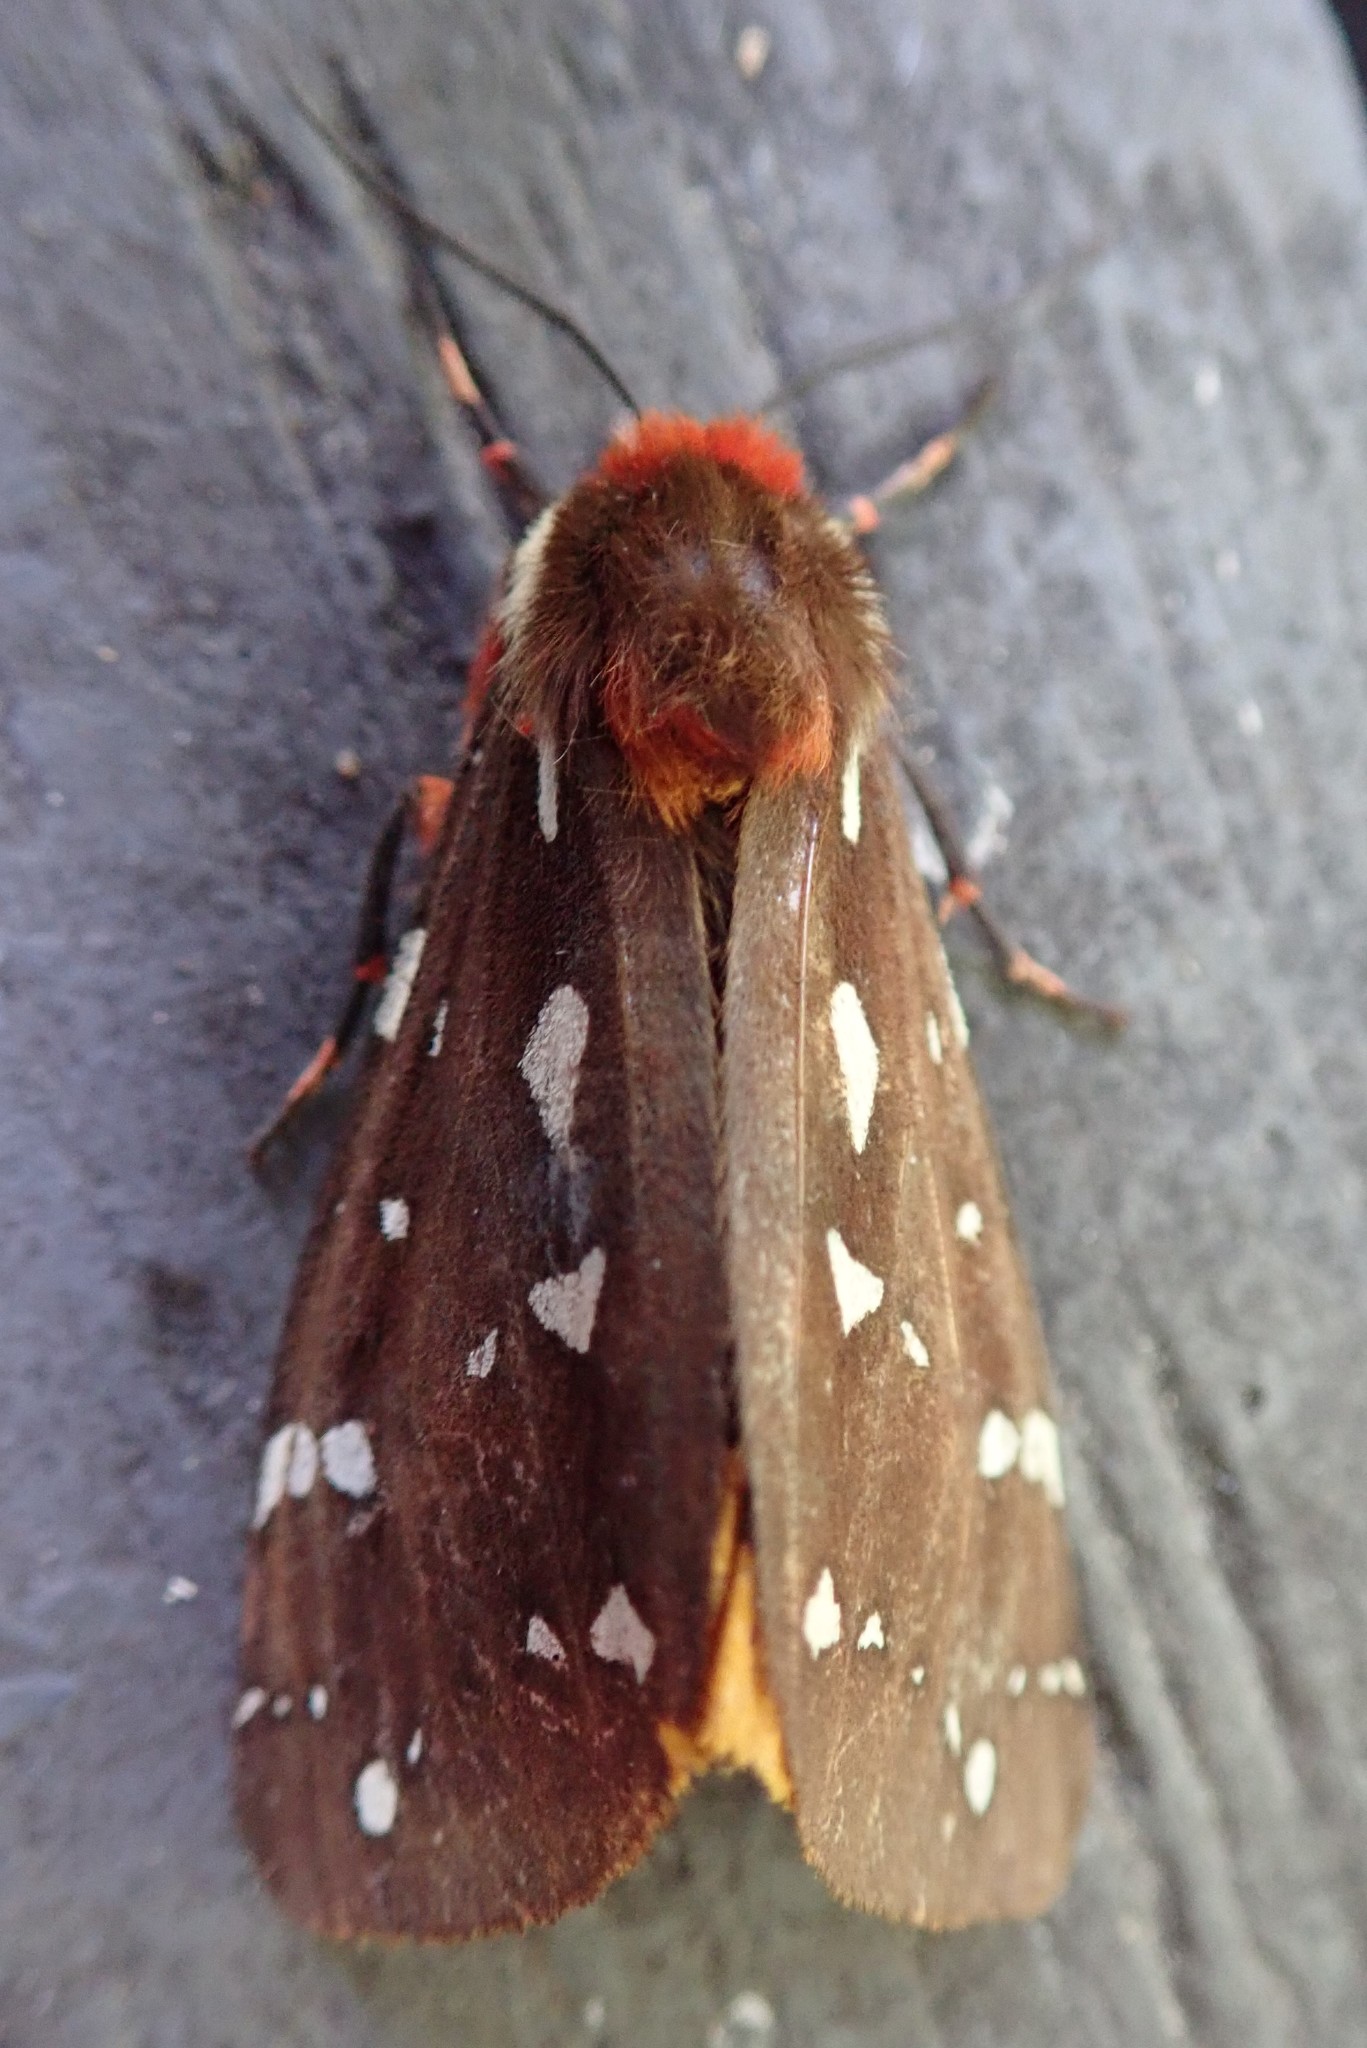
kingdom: Animalia
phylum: Arthropoda
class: Insecta
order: Lepidoptera
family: Erebidae
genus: Arctia
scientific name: Arctia parthenos
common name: St. lawrence tiger moth
